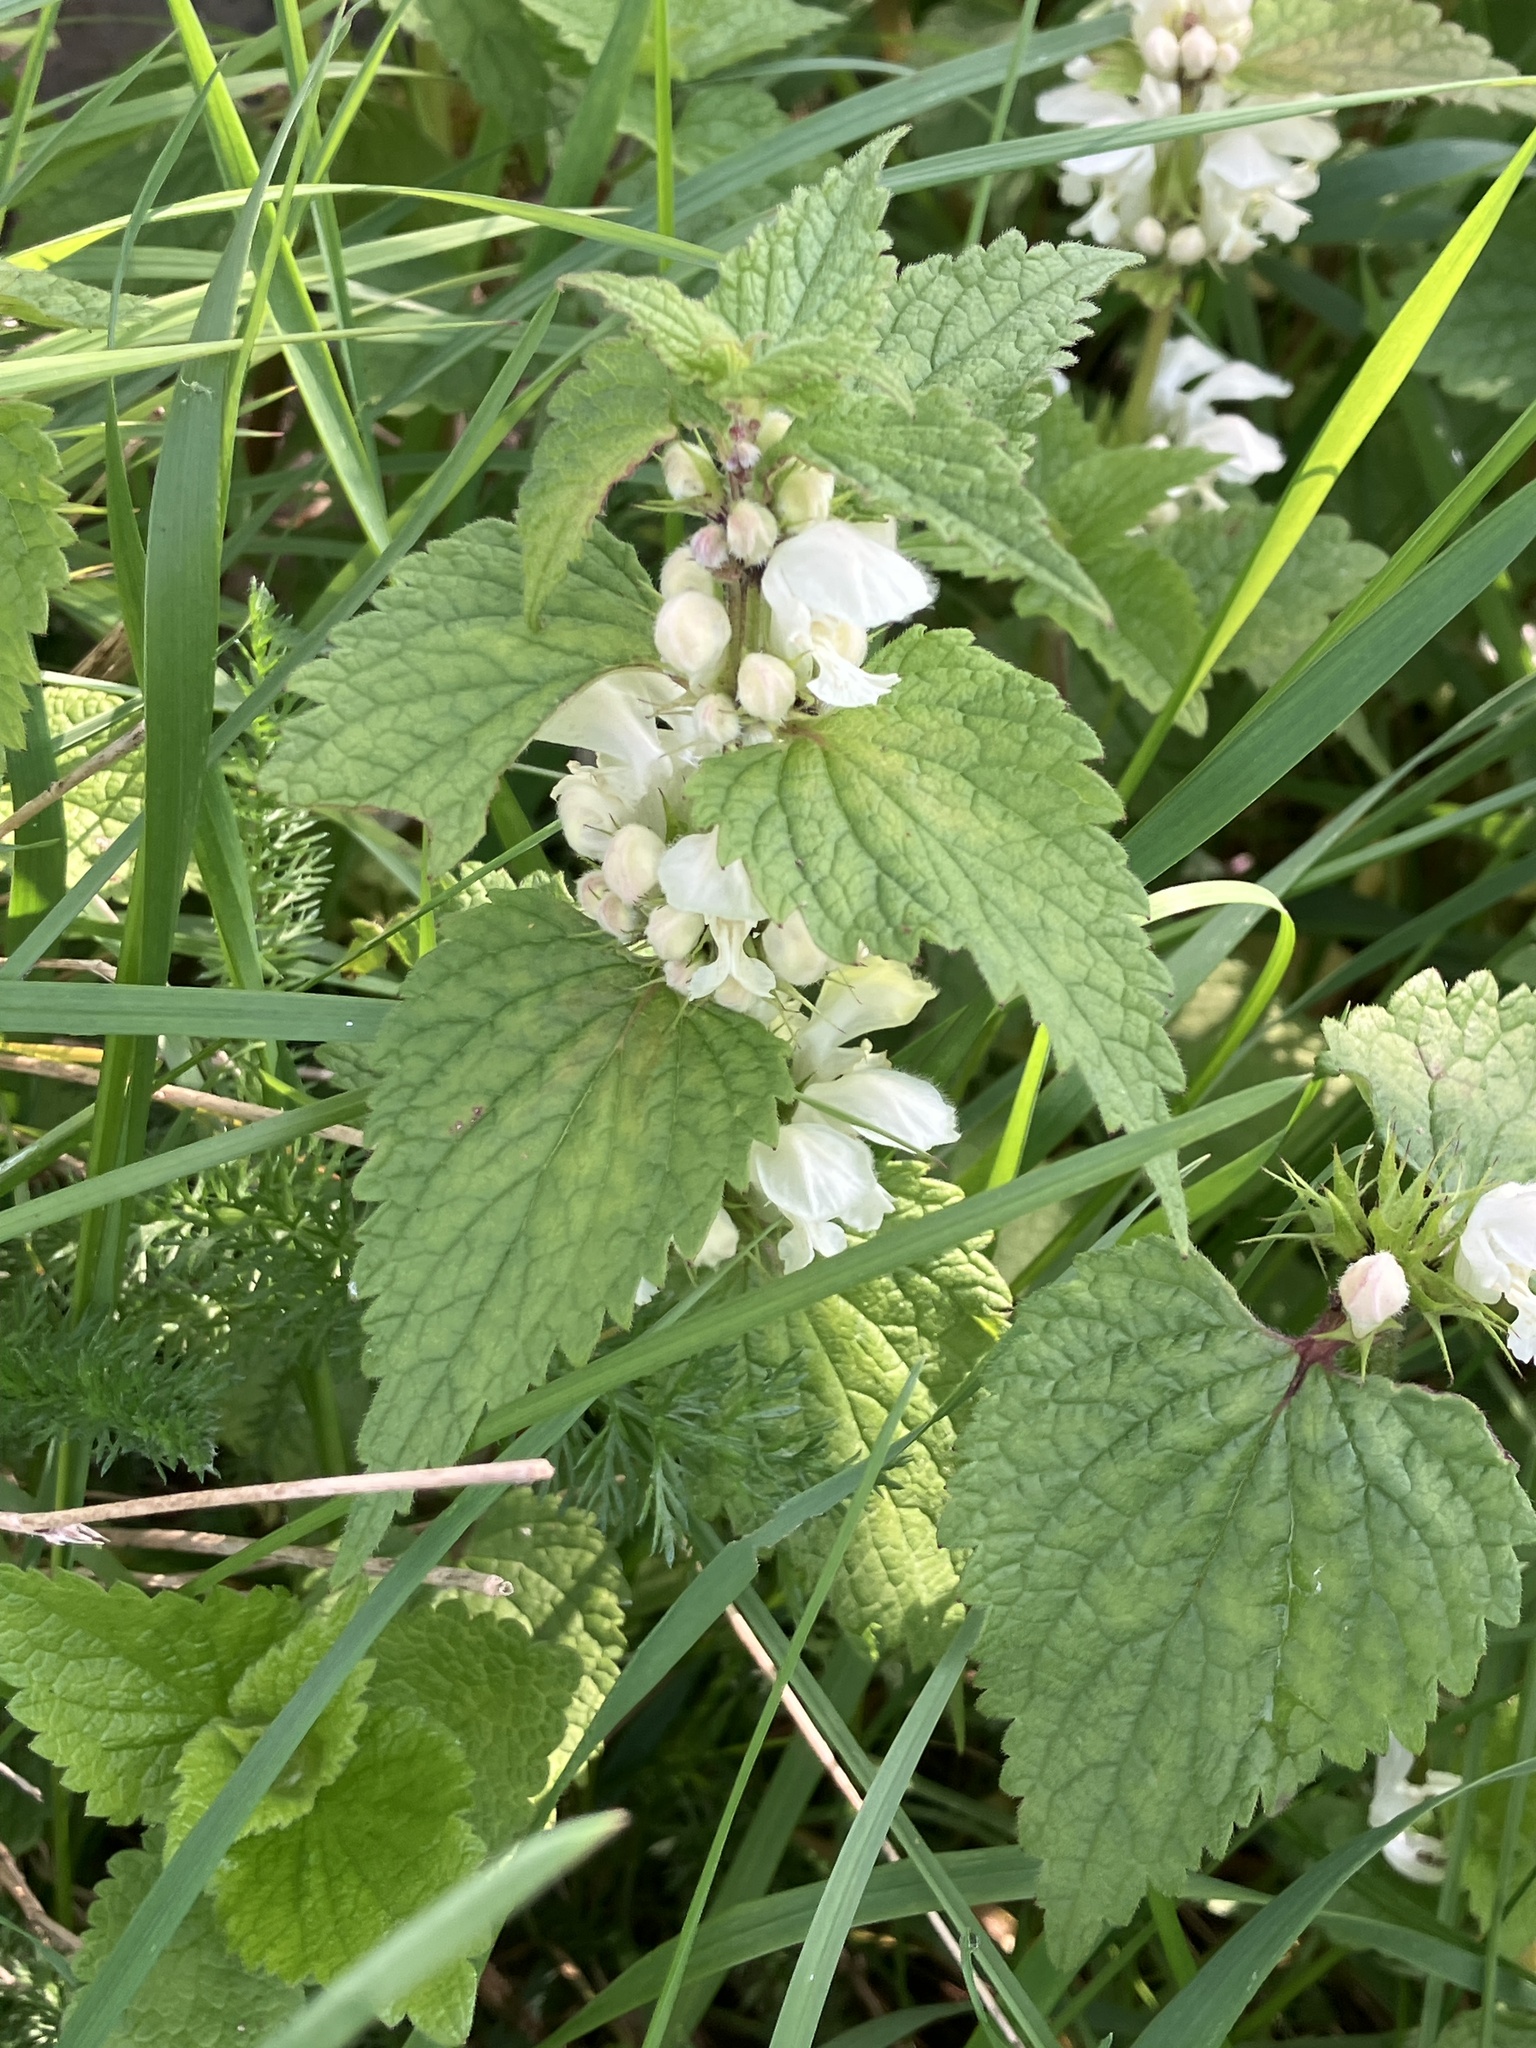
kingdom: Plantae
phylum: Tracheophyta
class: Magnoliopsida
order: Lamiales
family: Lamiaceae
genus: Lamium
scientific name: Lamium album
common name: White dead-nettle
